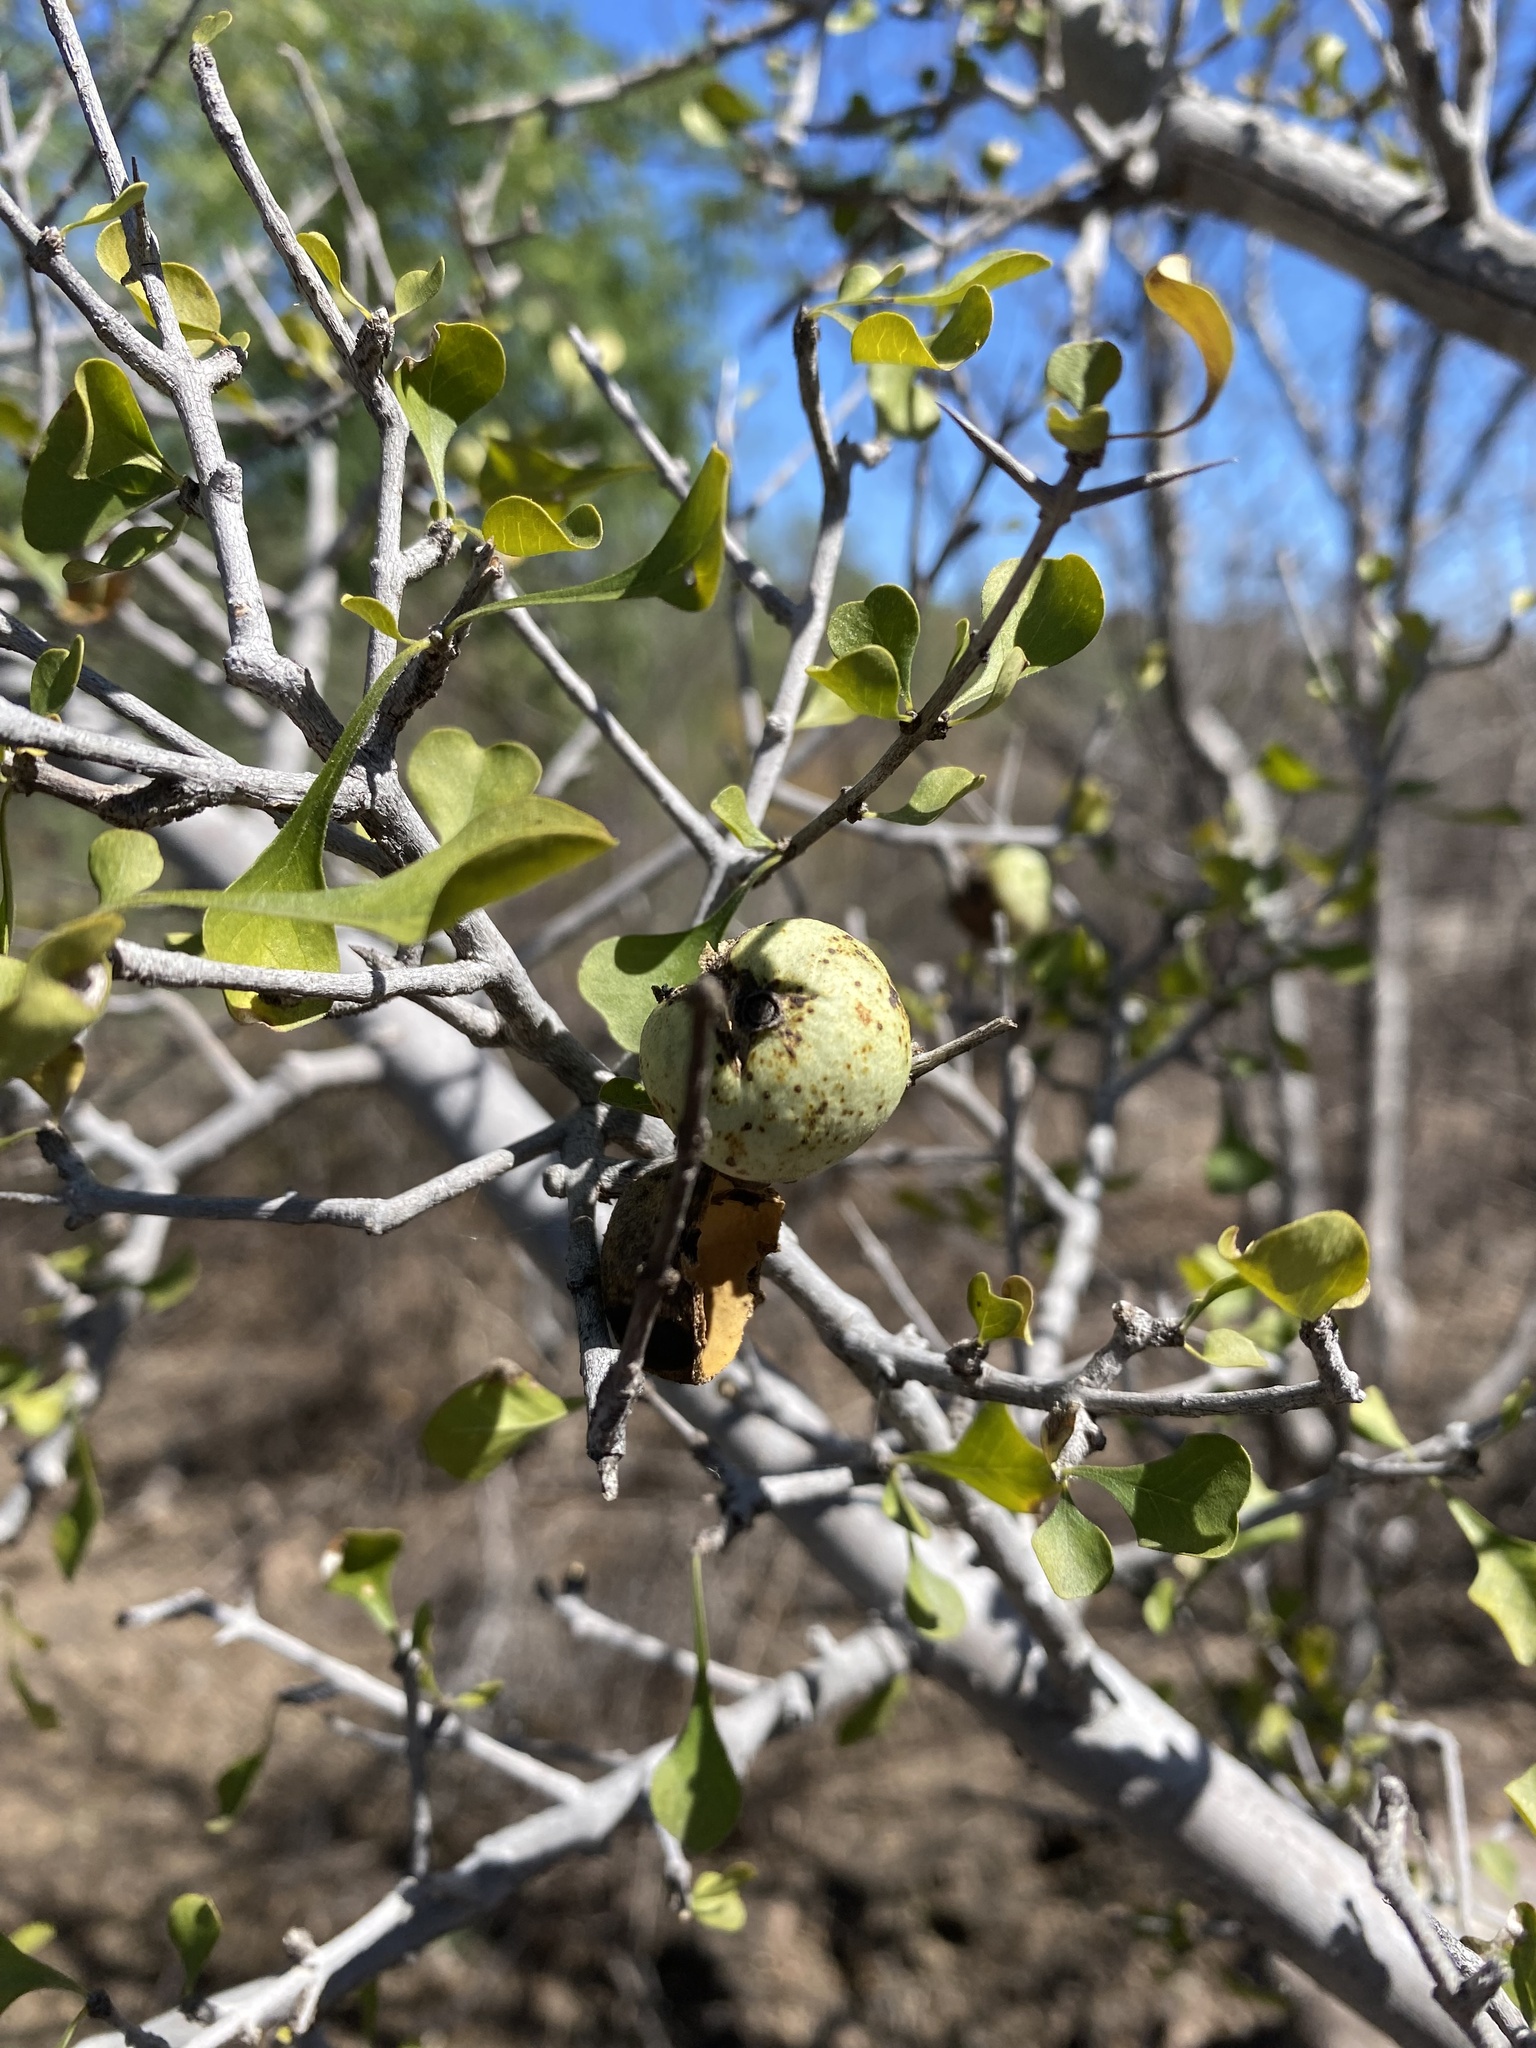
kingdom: Plantae
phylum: Tracheophyta
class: Magnoliopsida
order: Gentianales
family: Rubiaceae
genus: Randia
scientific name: Randia thurberi
